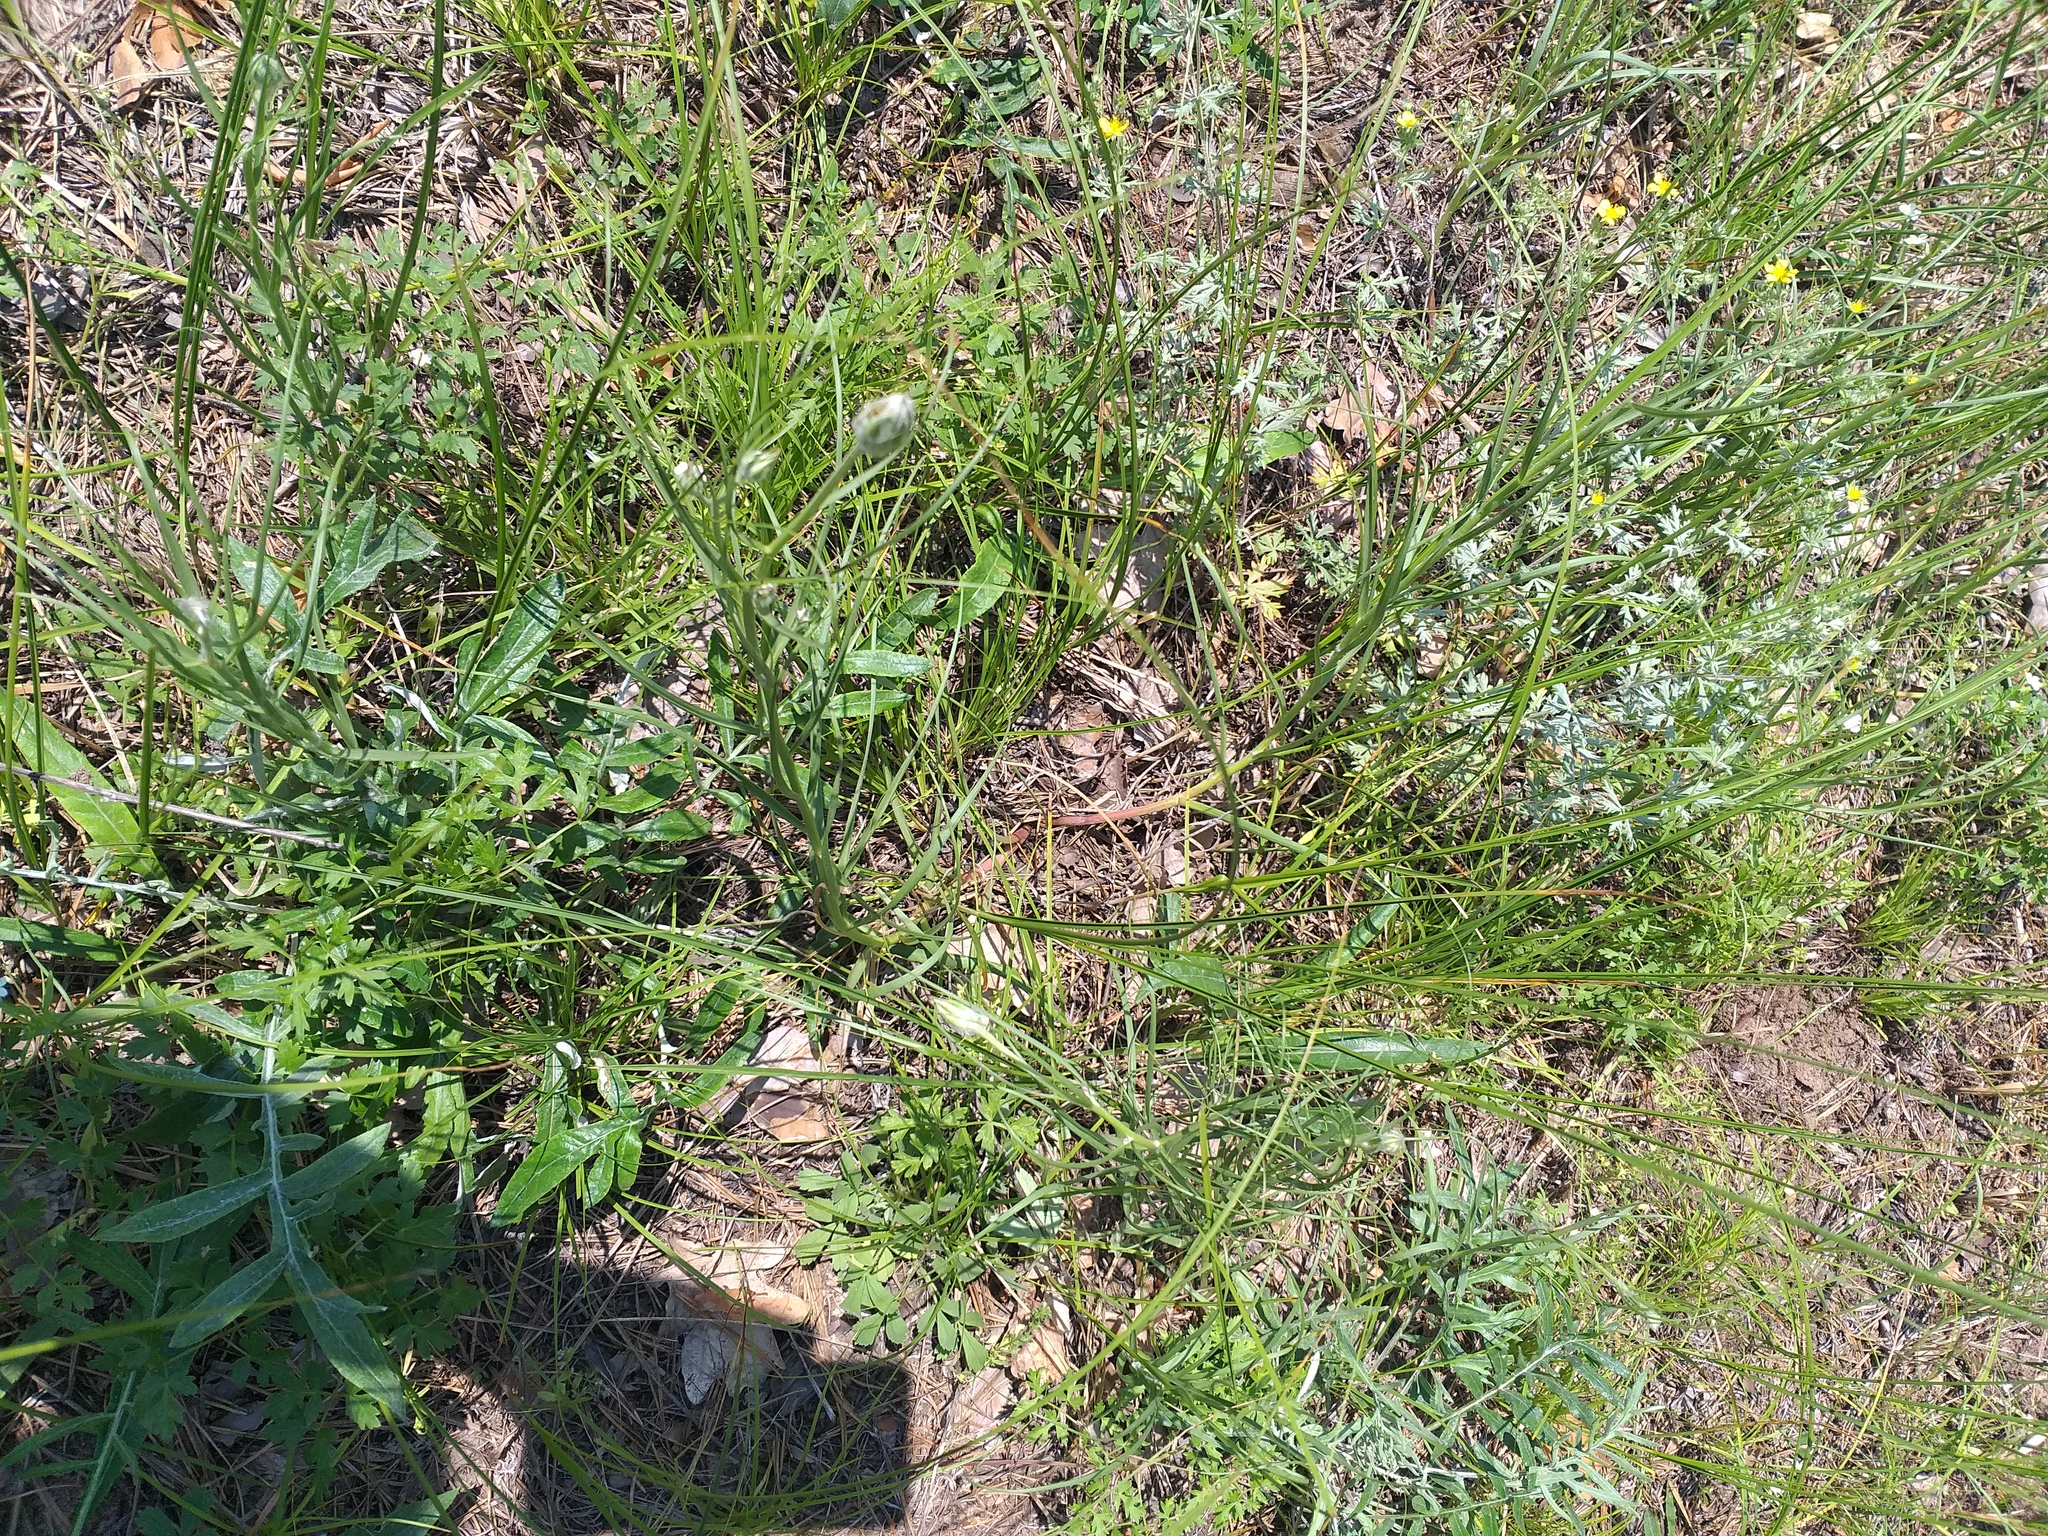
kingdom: Plantae
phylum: Tracheophyta
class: Magnoliopsida
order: Asterales
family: Asteraceae
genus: Gelasia
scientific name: Gelasia ensifolia
